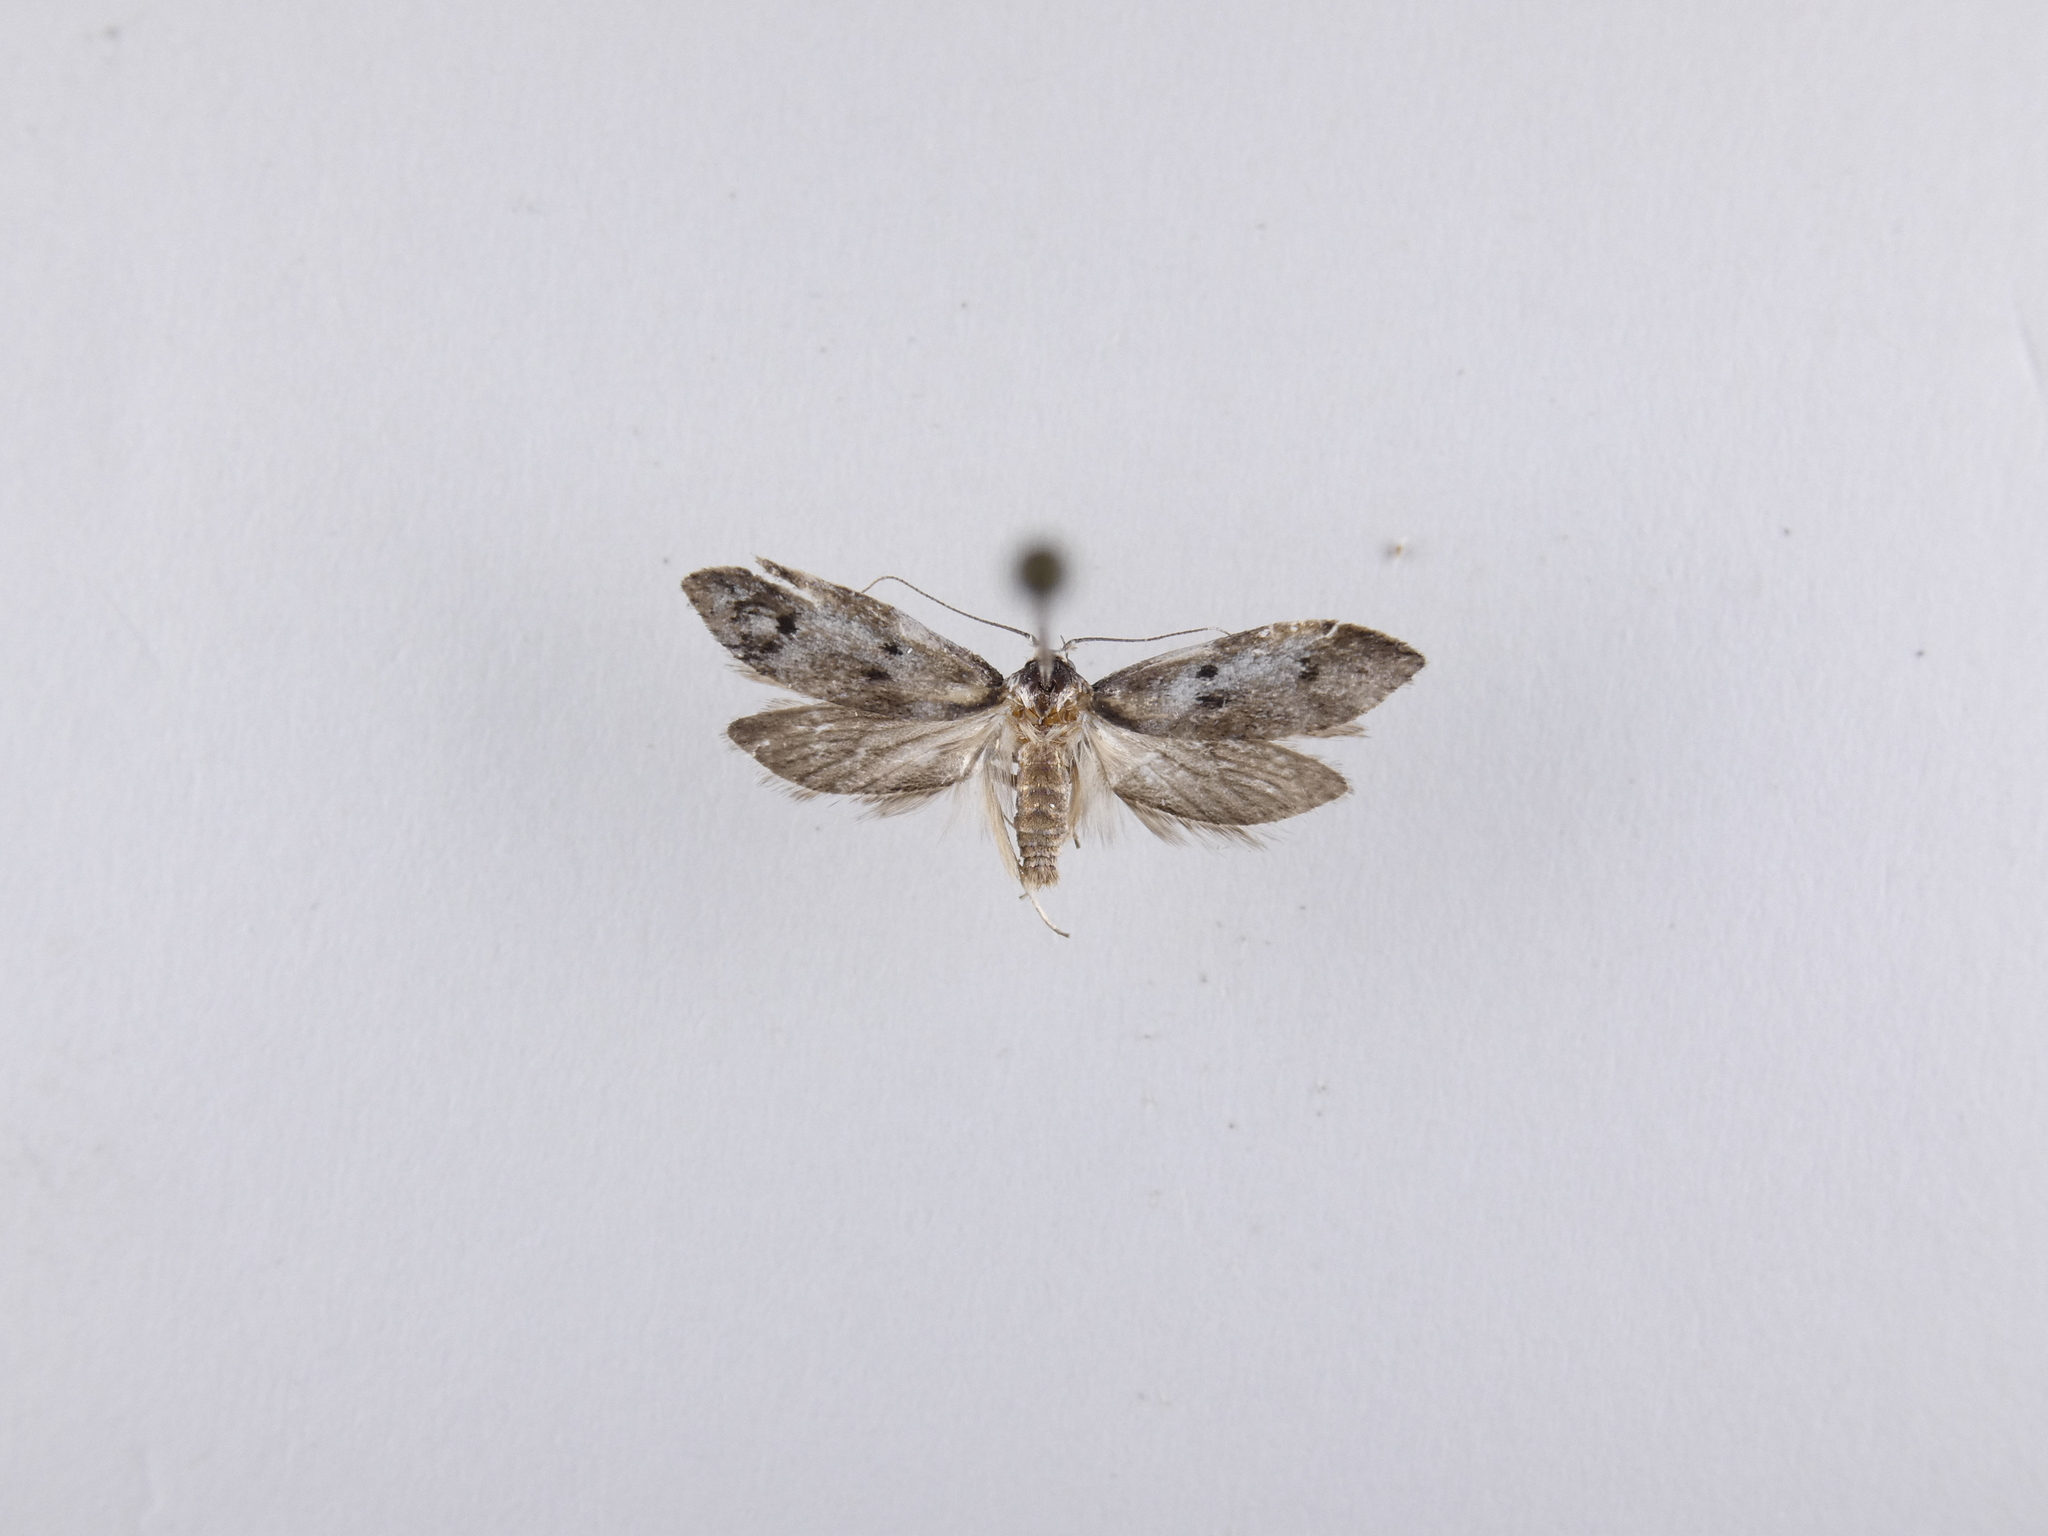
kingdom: Animalia
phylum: Arthropoda
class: Insecta
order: Lepidoptera
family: Oecophoridae
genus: Trachypepla
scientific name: Trachypepla indolescens
